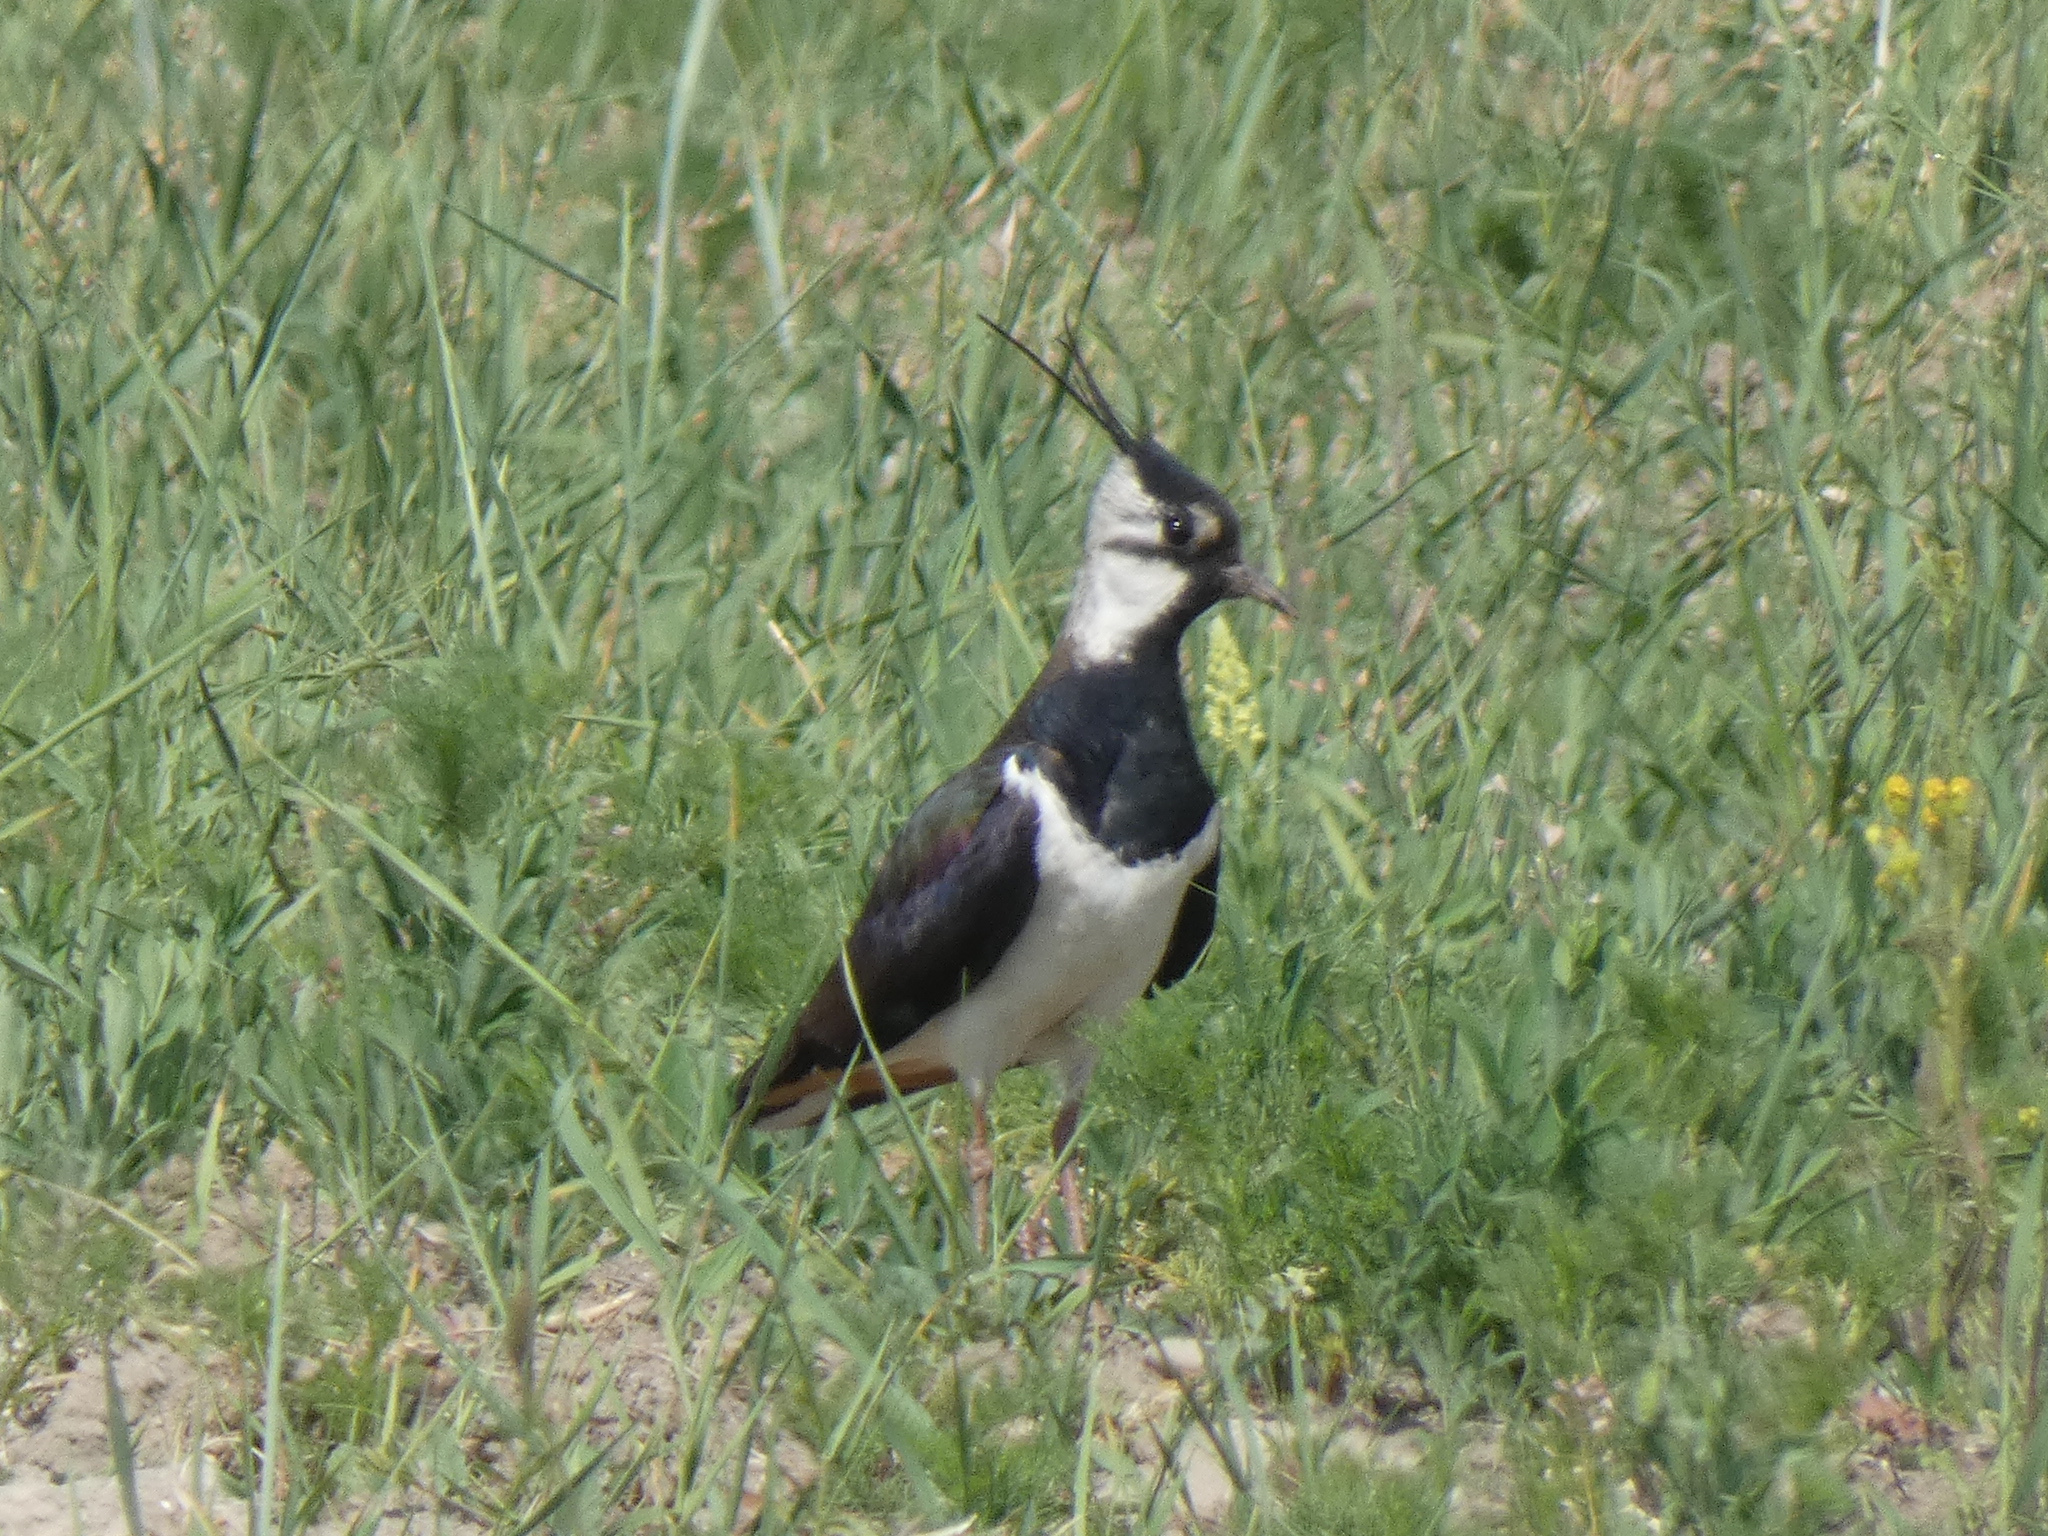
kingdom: Animalia
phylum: Chordata
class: Aves
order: Charadriiformes
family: Charadriidae
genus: Vanellus
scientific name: Vanellus vanellus
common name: Northern lapwing
